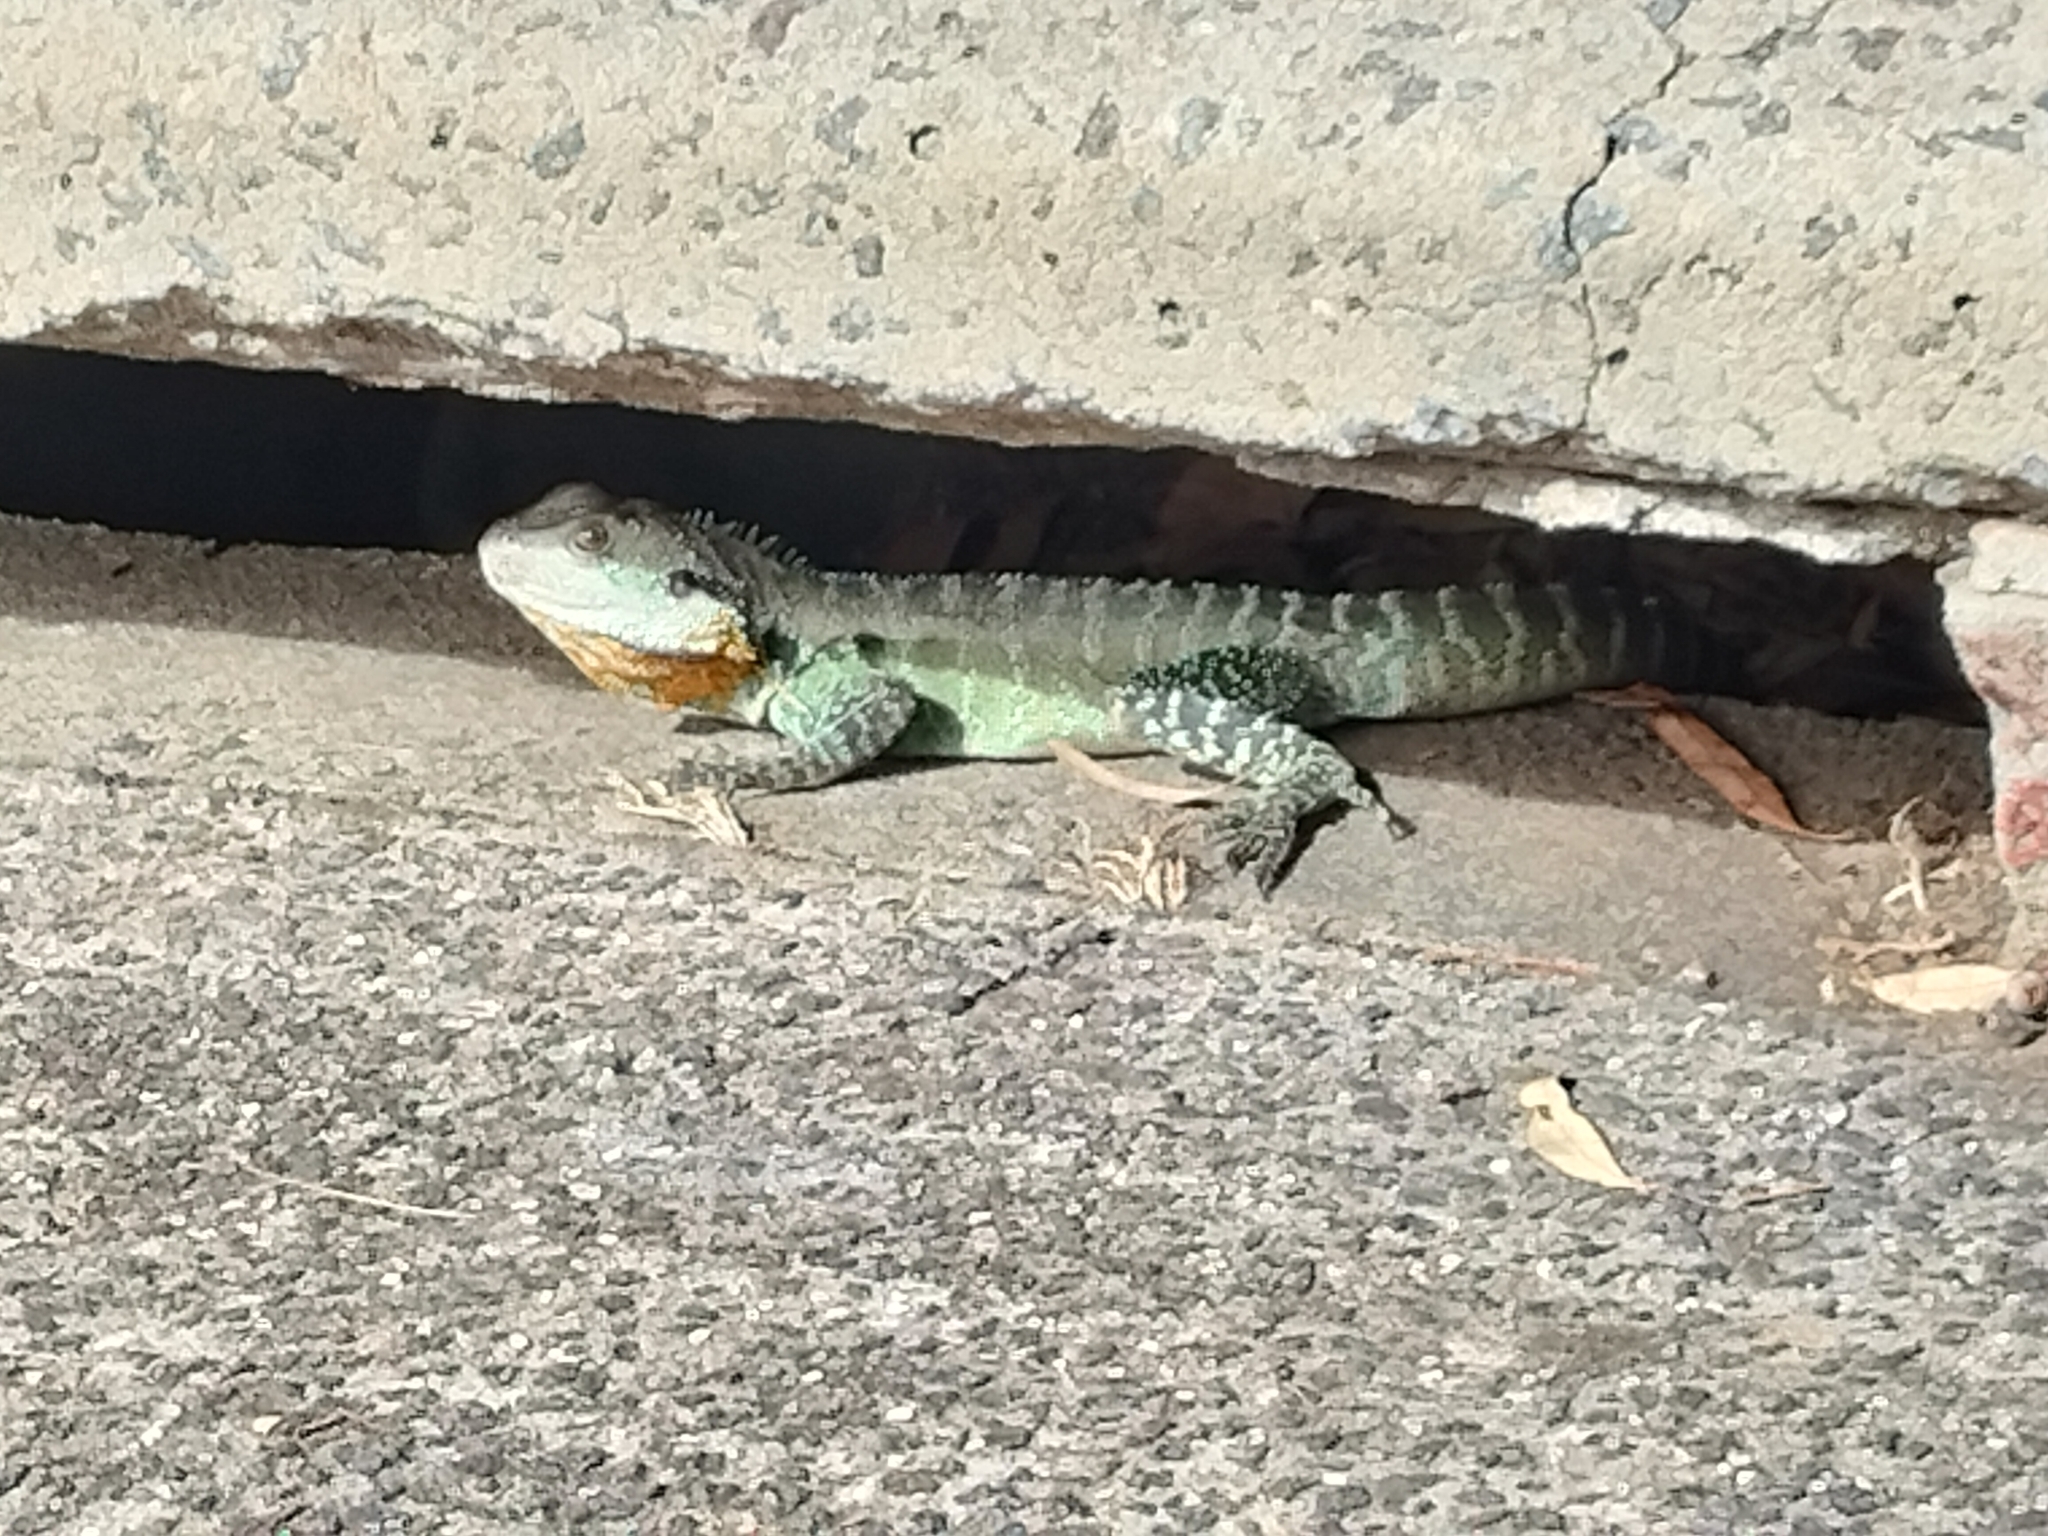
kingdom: Animalia
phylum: Chordata
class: Squamata
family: Agamidae
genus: Intellagama
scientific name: Intellagama lesueurii
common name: Eastern water dragon
